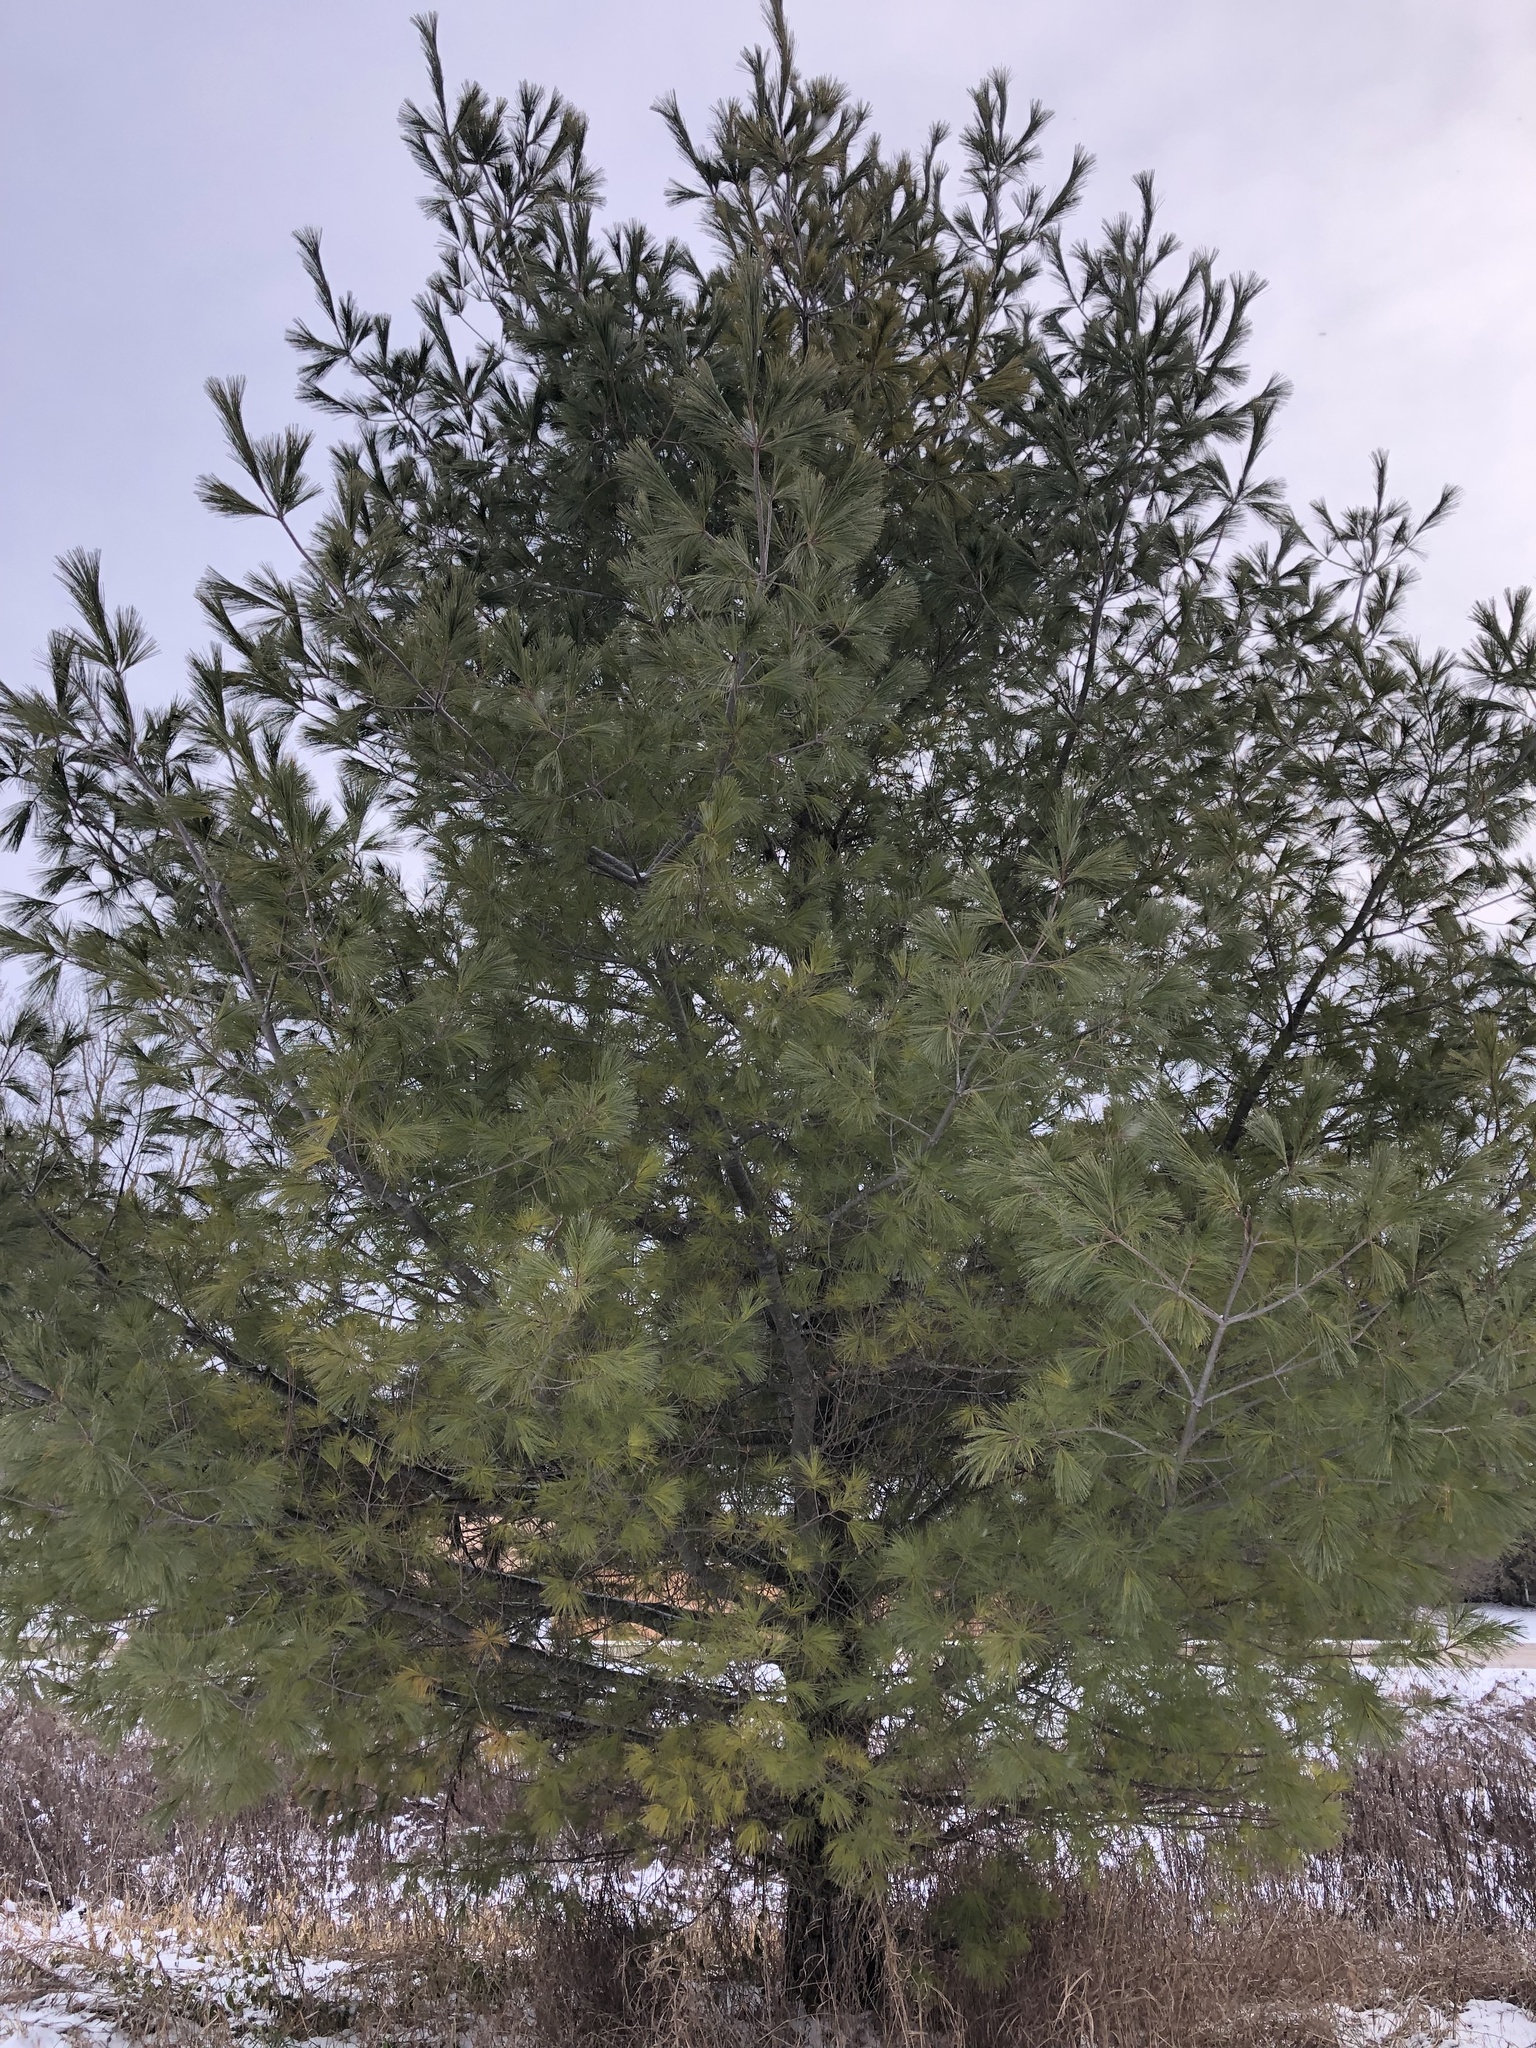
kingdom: Plantae
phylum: Tracheophyta
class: Pinopsida
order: Pinales
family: Pinaceae
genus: Pinus
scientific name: Pinus strobus
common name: Weymouth pine
